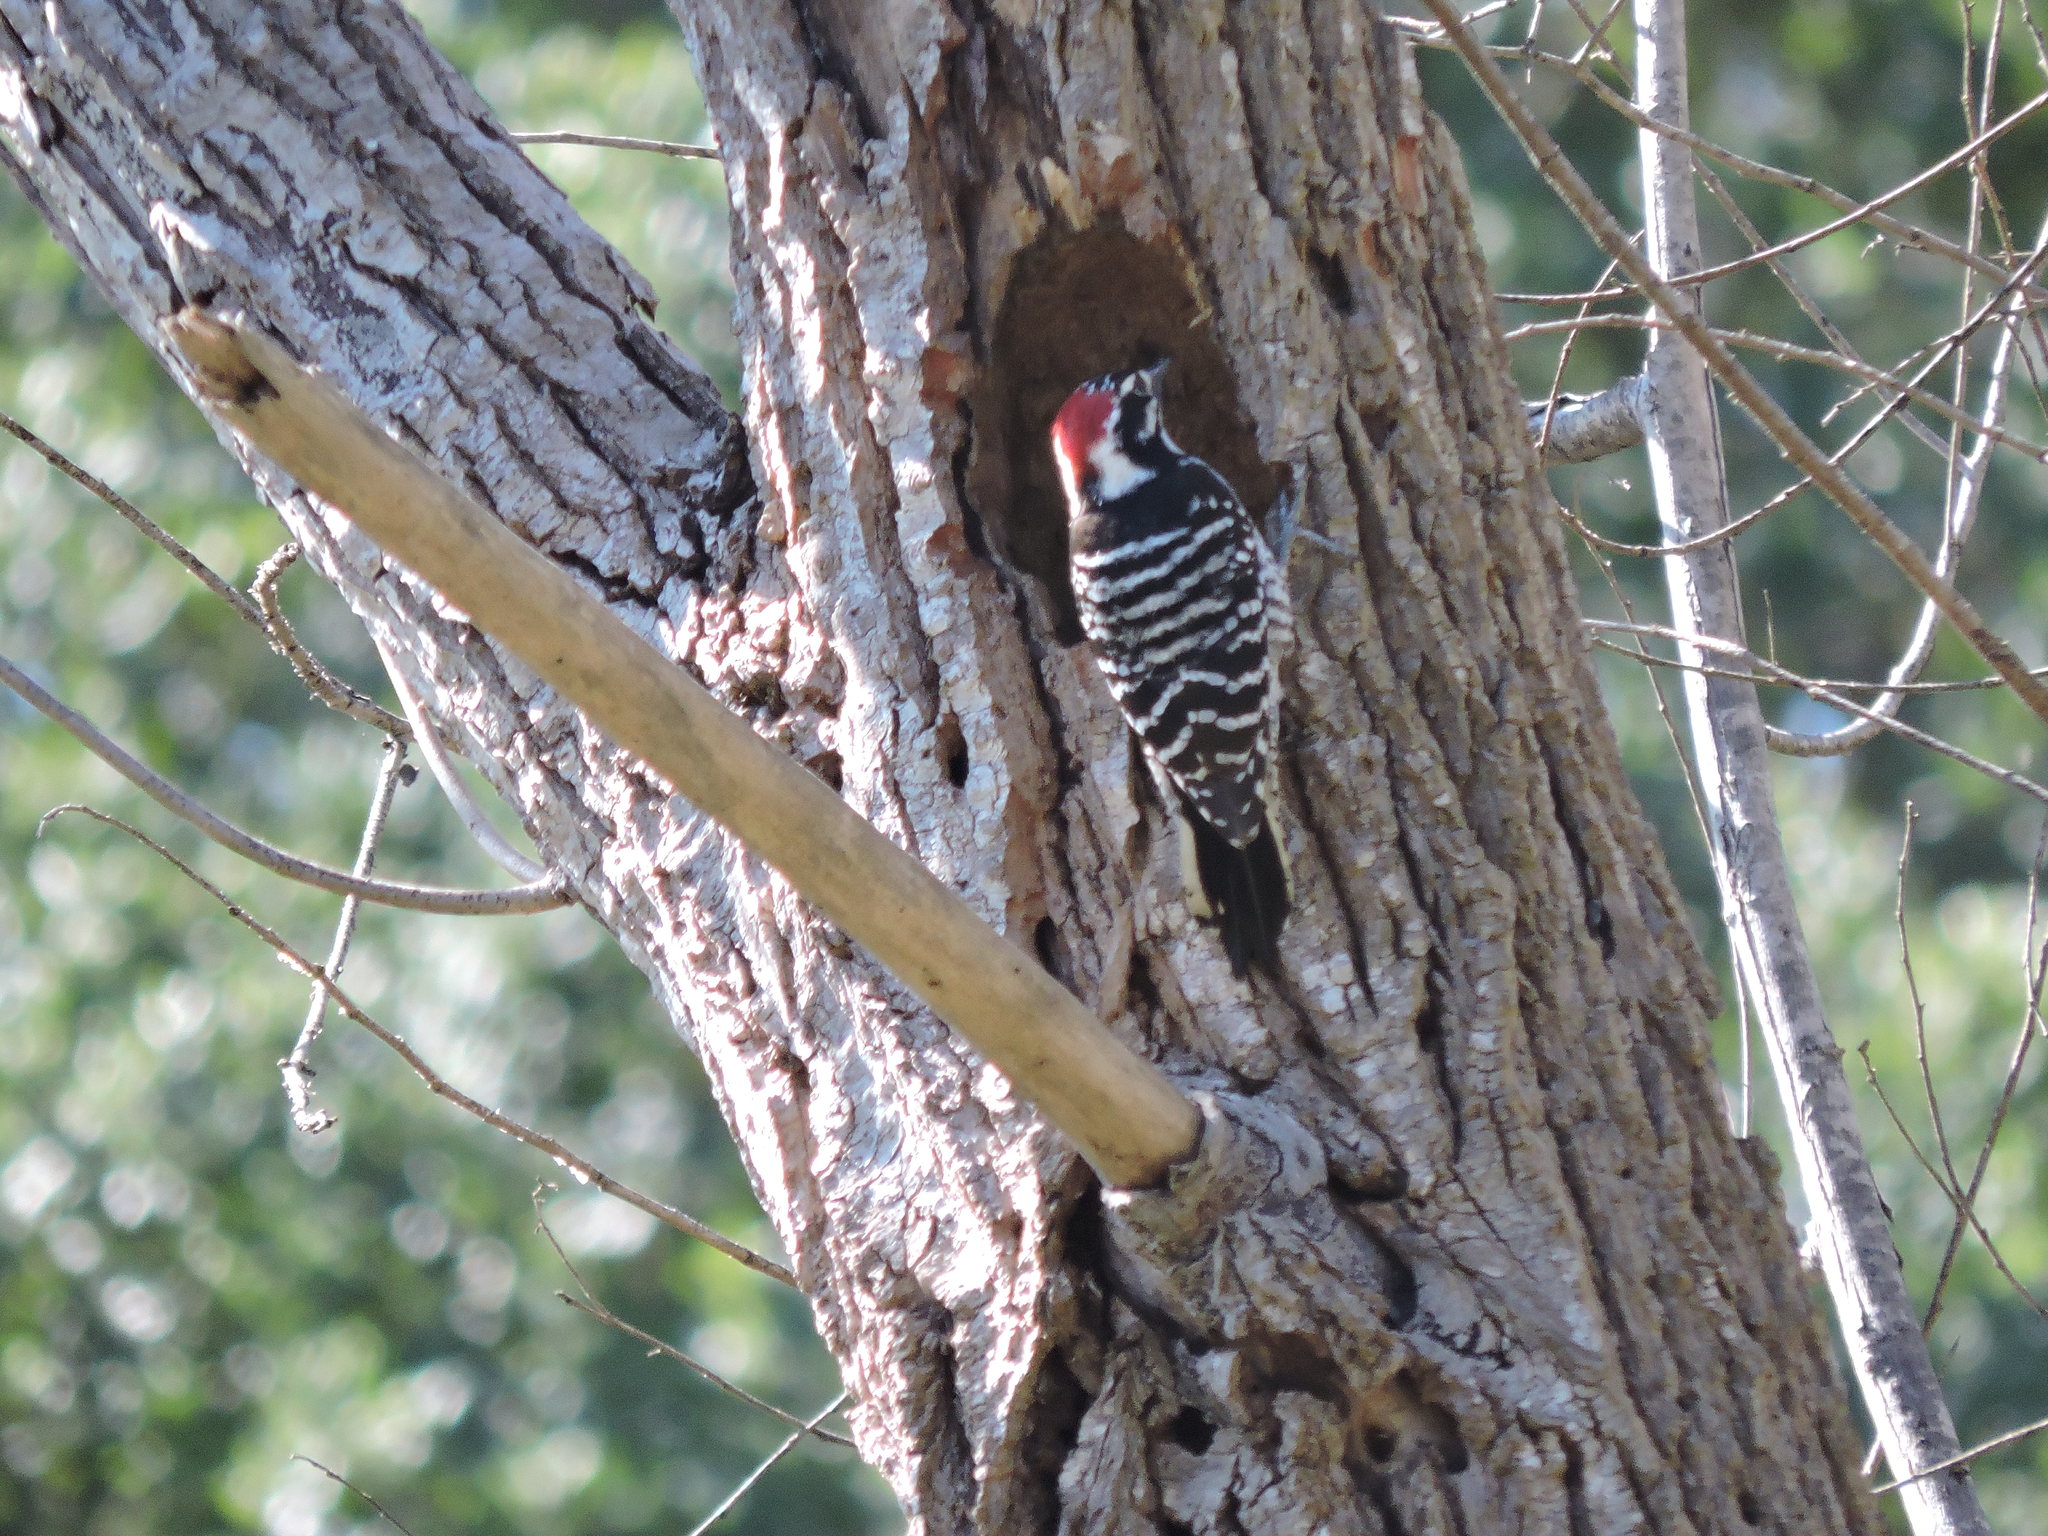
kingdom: Animalia
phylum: Chordata
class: Aves
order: Piciformes
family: Picidae
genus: Dryobates
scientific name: Dryobates nuttallii
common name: Nuttall's woodpecker
